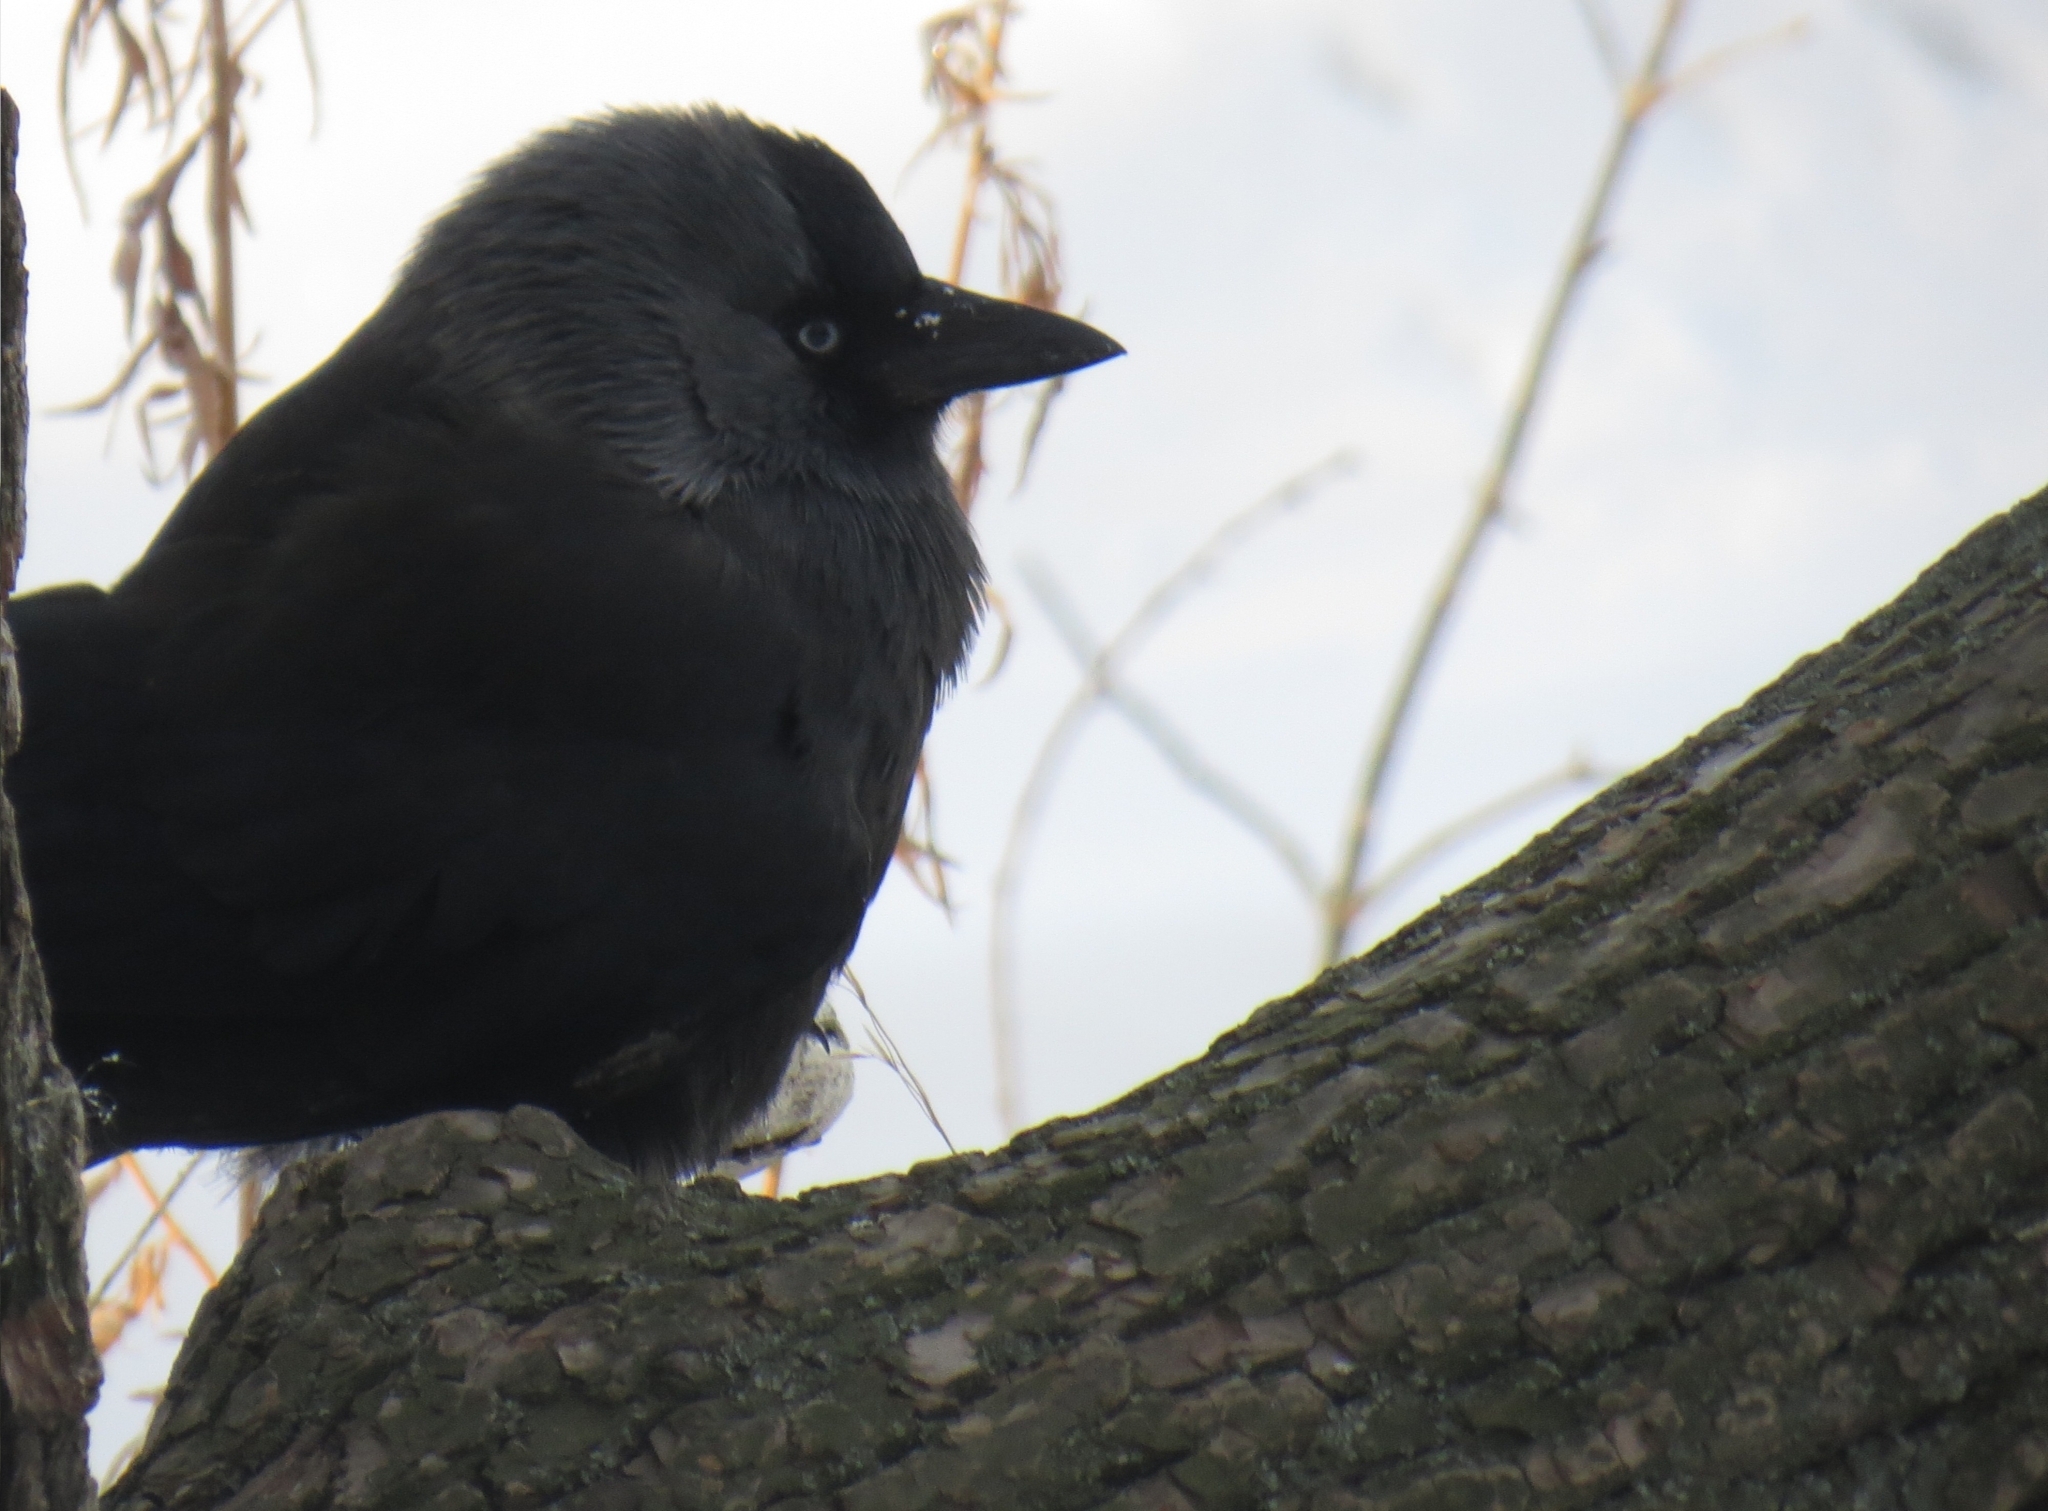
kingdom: Animalia
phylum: Chordata
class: Aves
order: Passeriformes
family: Corvidae
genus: Coloeus
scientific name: Coloeus monedula
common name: Western jackdaw
